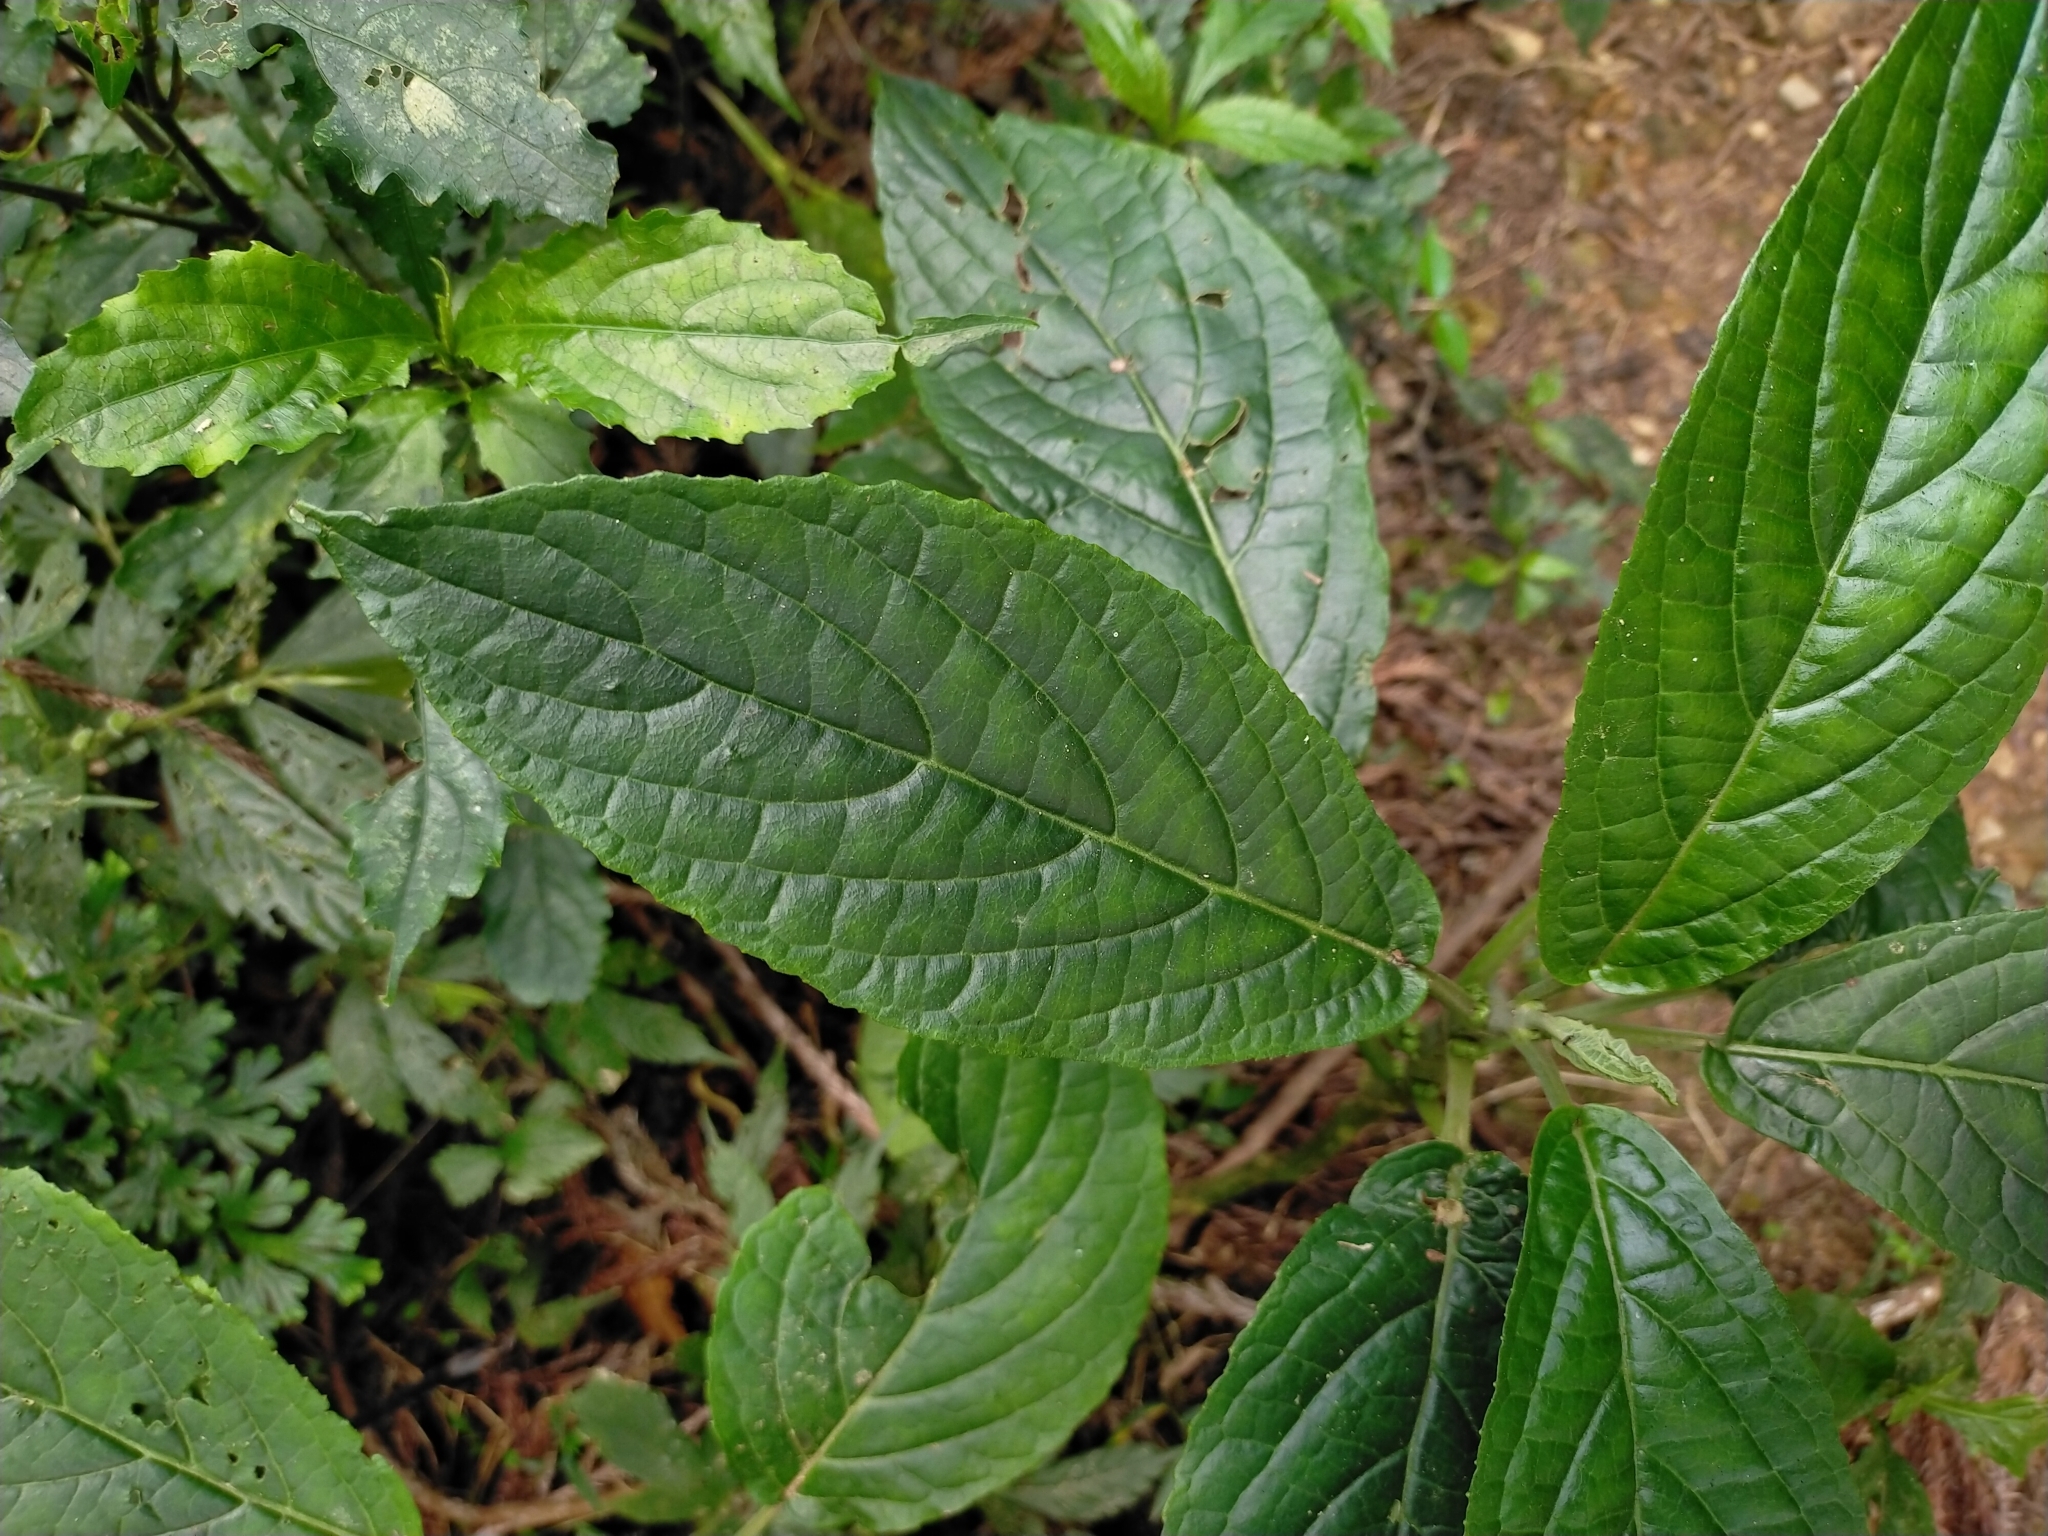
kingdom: Plantae
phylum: Tracheophyta
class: Magnoliopsida
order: Lamiales
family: Lamiaceae
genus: Paraphlomis
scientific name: Paraphlomis javanica
